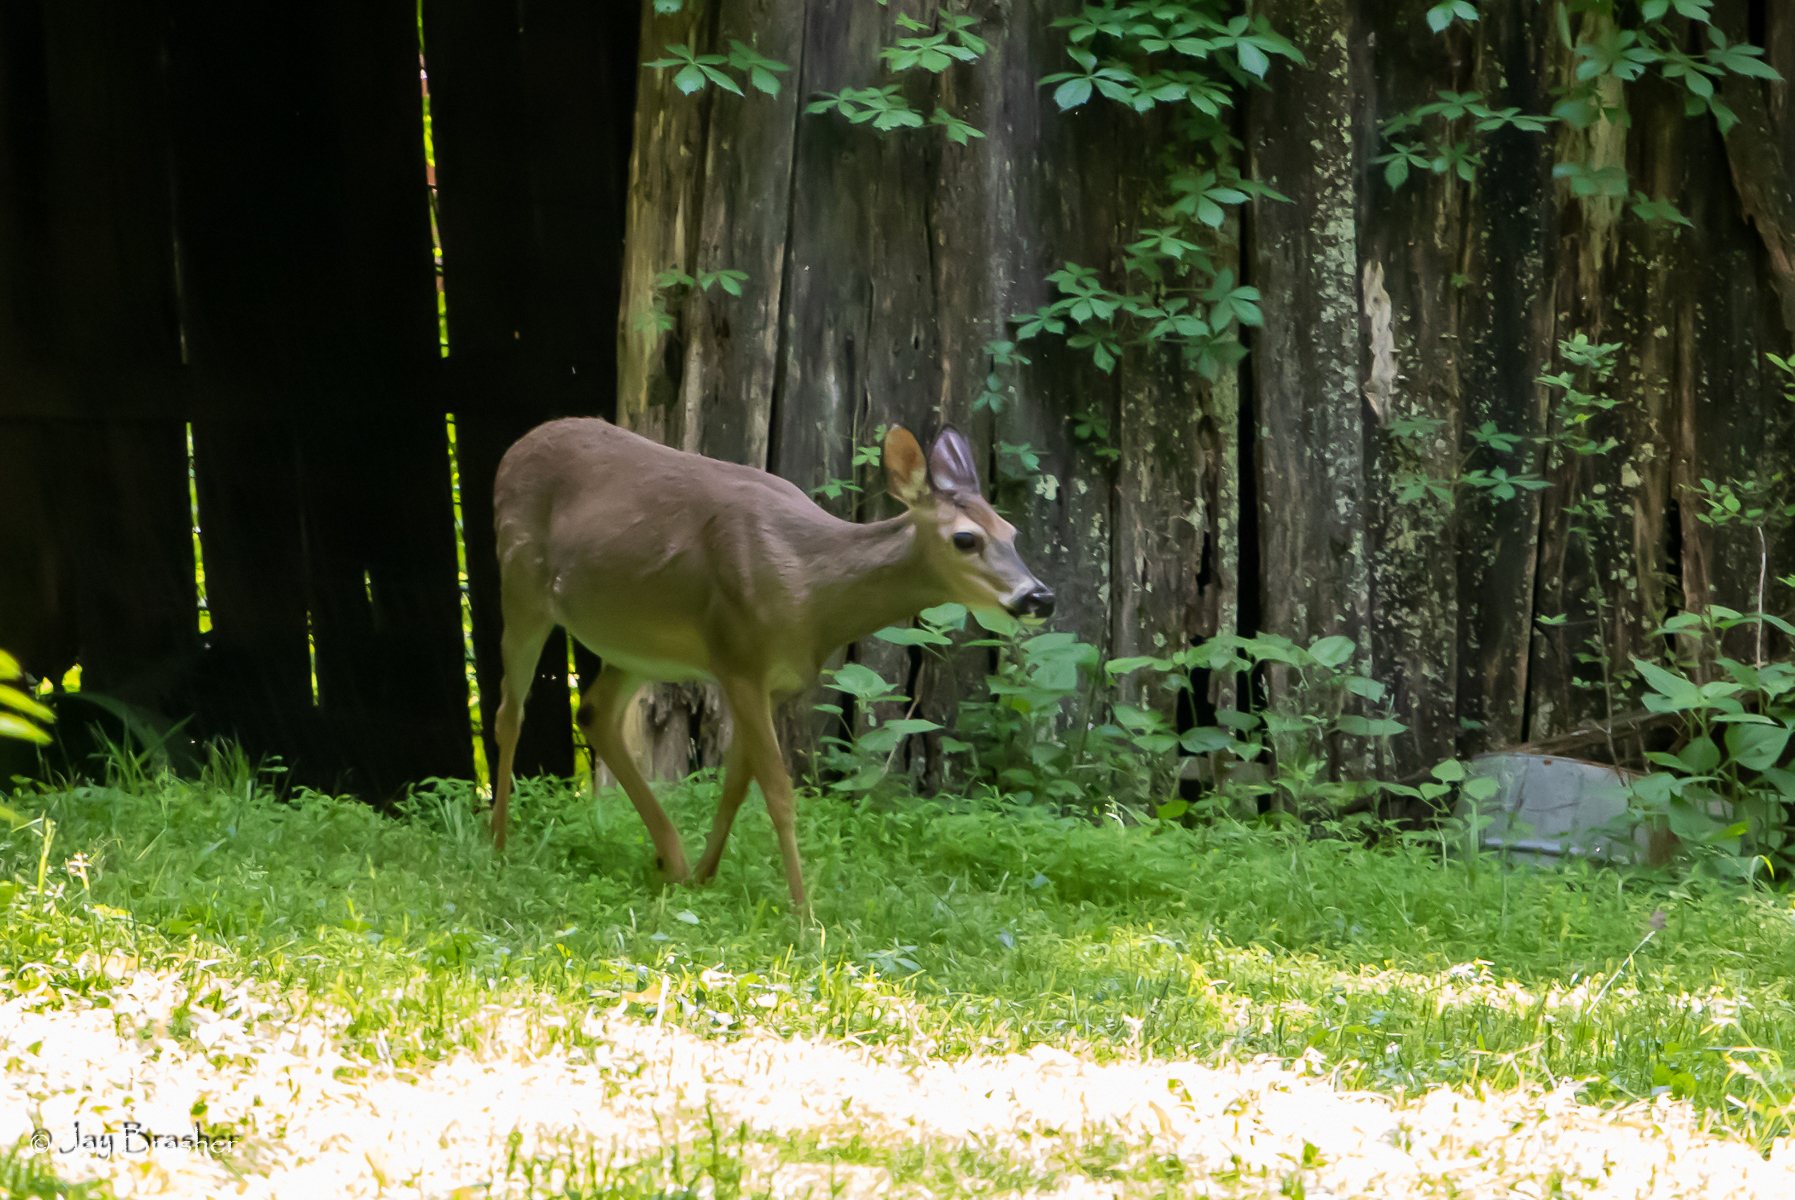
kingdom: Animalia
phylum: Chordata
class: Mammalia
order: Artiodactyla
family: Cervidae
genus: Odocoileus
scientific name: Odocoileus virginianus
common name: White-tailed deer
